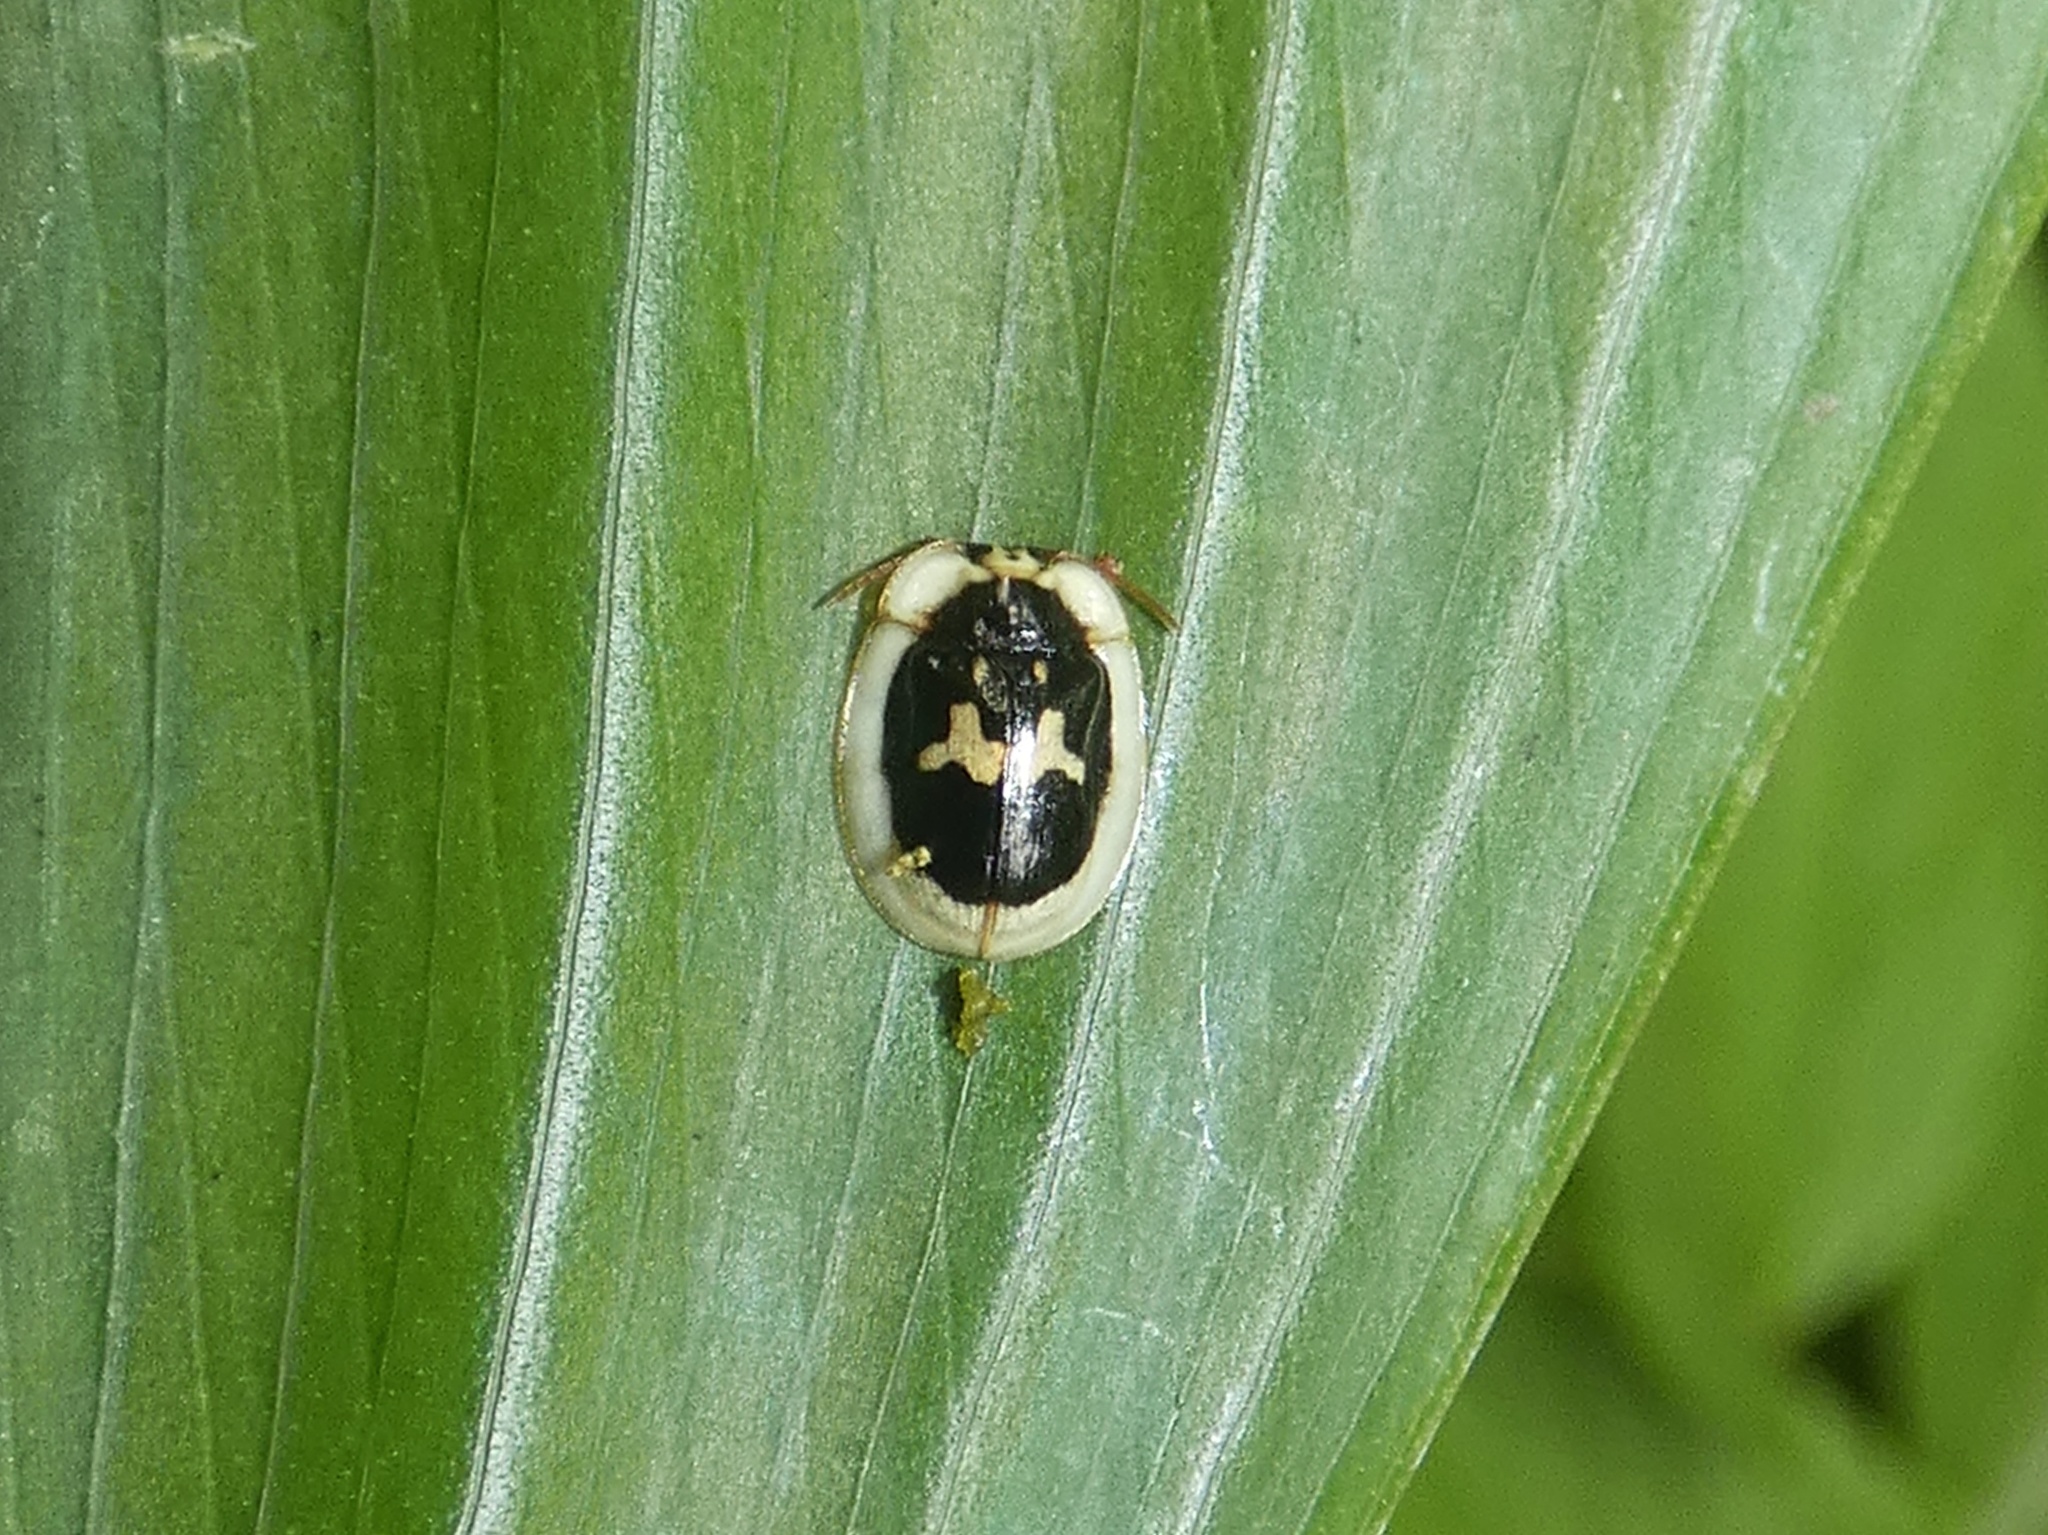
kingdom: Animalia
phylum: Arthropoda
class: Insecta
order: Coleoptera
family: Chrysomelidae
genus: Aslamidium
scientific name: Aslamidium semicirculare
